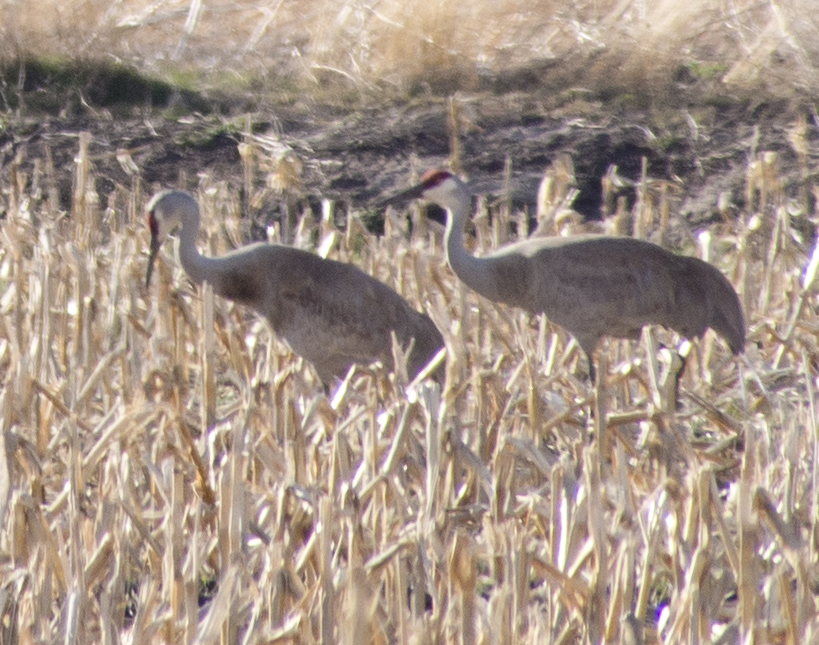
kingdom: Animalia
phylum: Chordata
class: Aves
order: Gruiformes
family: Gruidae
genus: Grus
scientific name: Grus canadensis
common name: Sandhill crane
